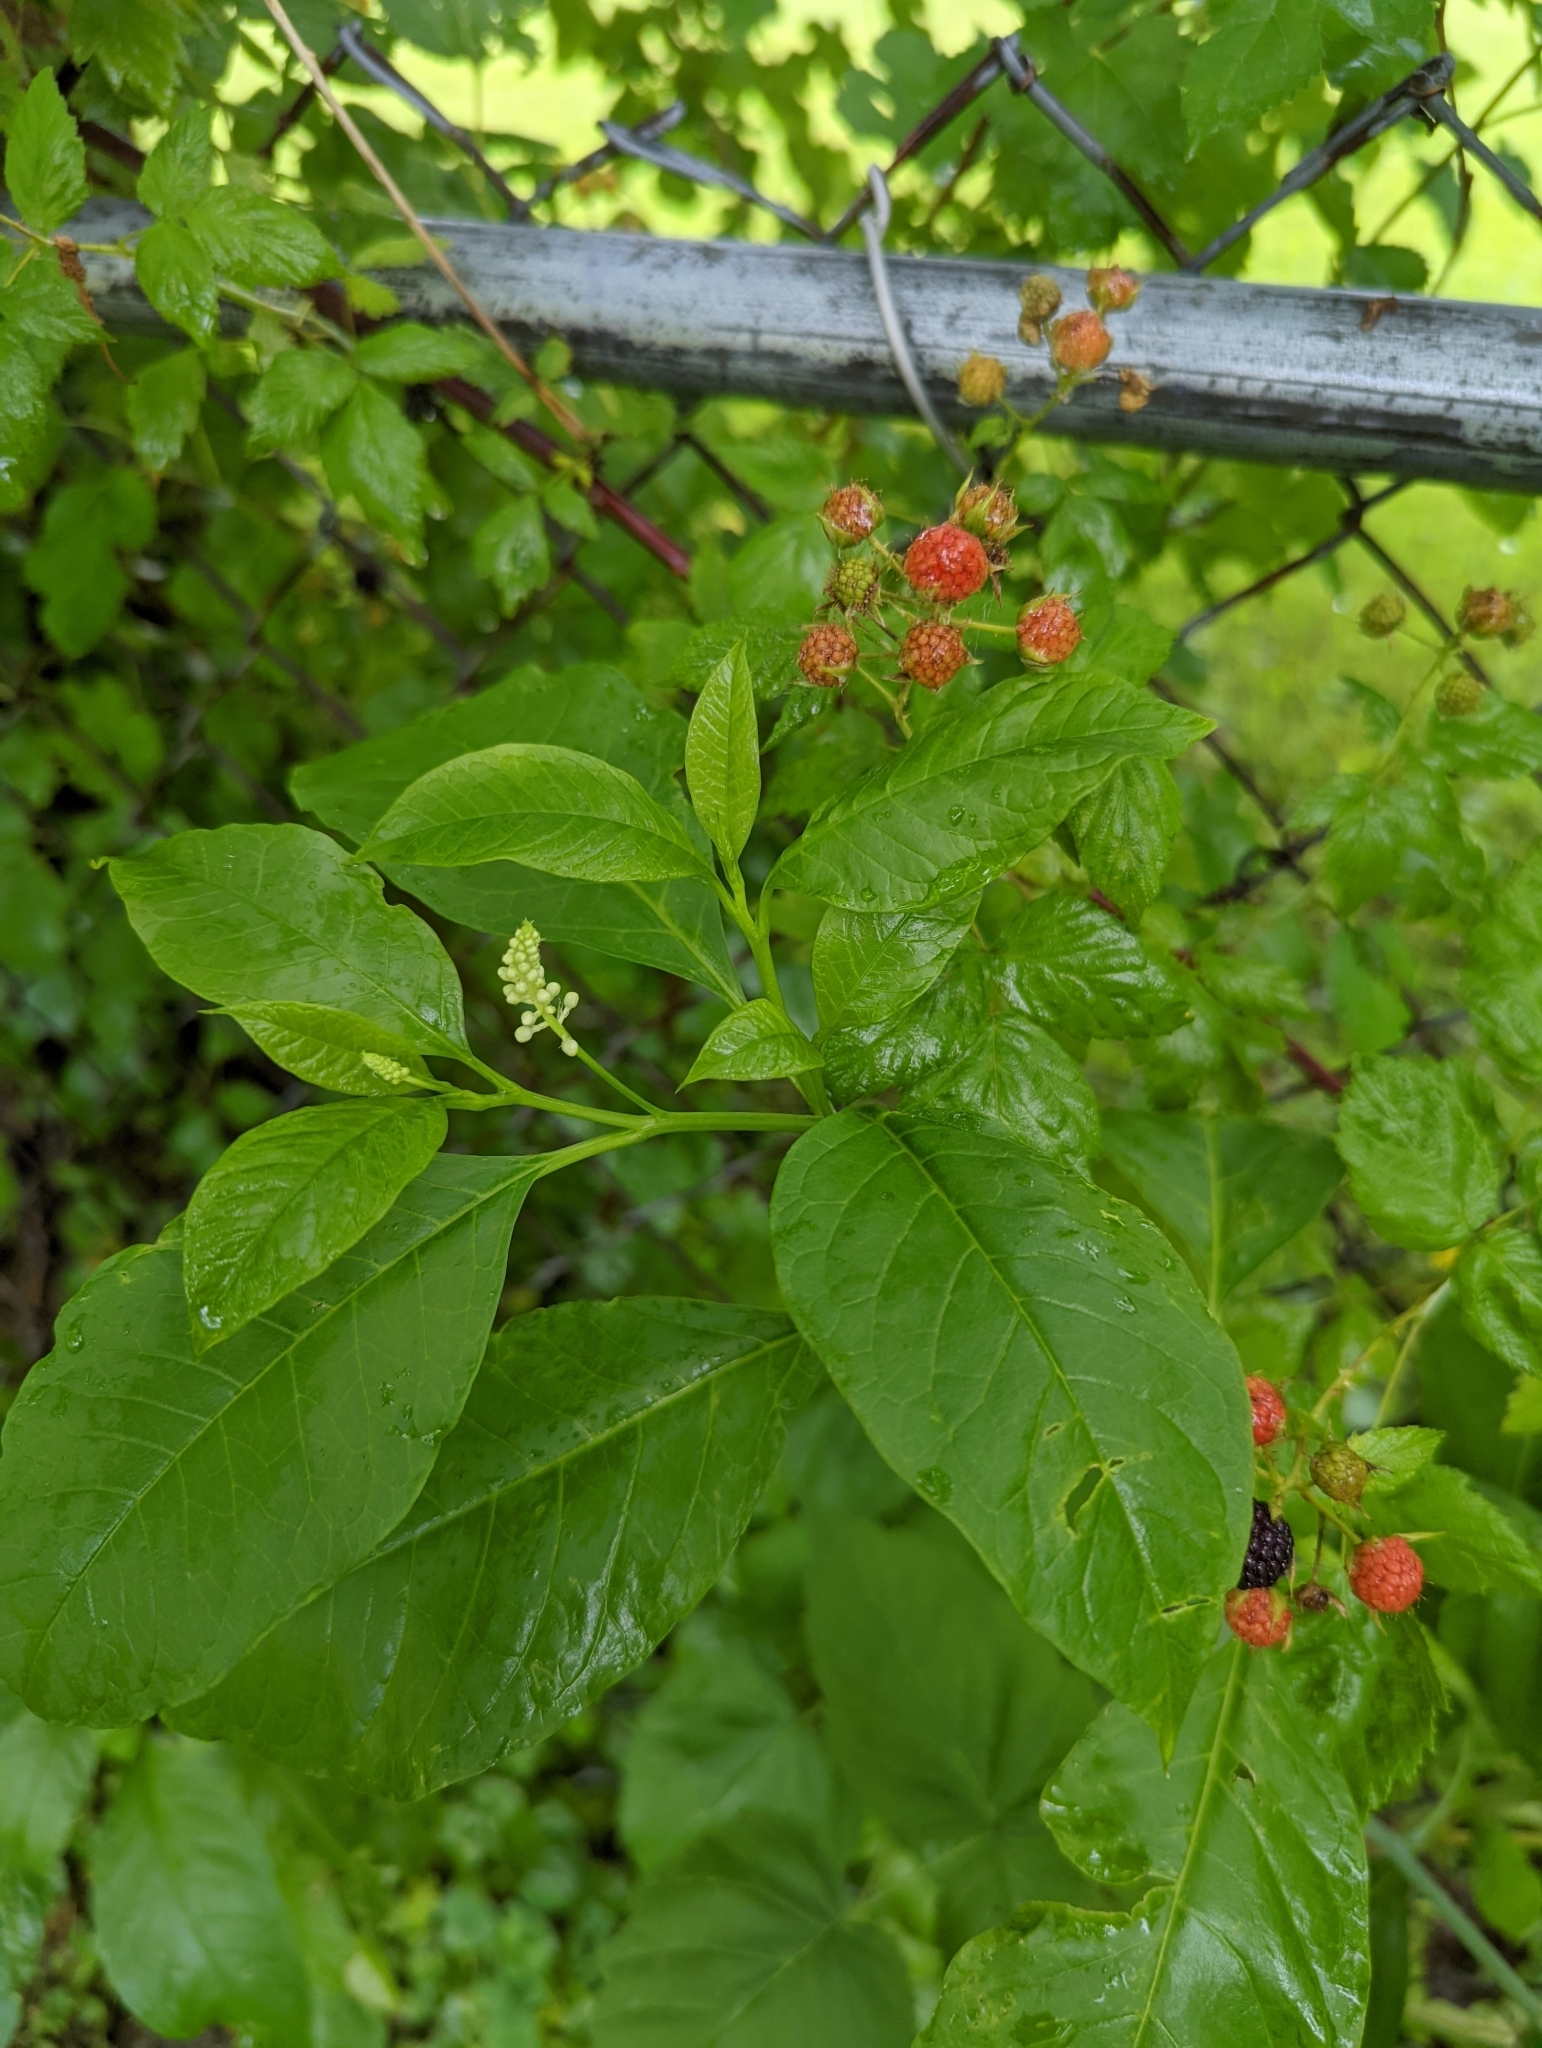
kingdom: Plantae
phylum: Tracheophyta
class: Magnoliopsida
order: Rosales
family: Rosaceae
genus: Rubus
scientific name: Rubus occidentalis
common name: Black raspberry
